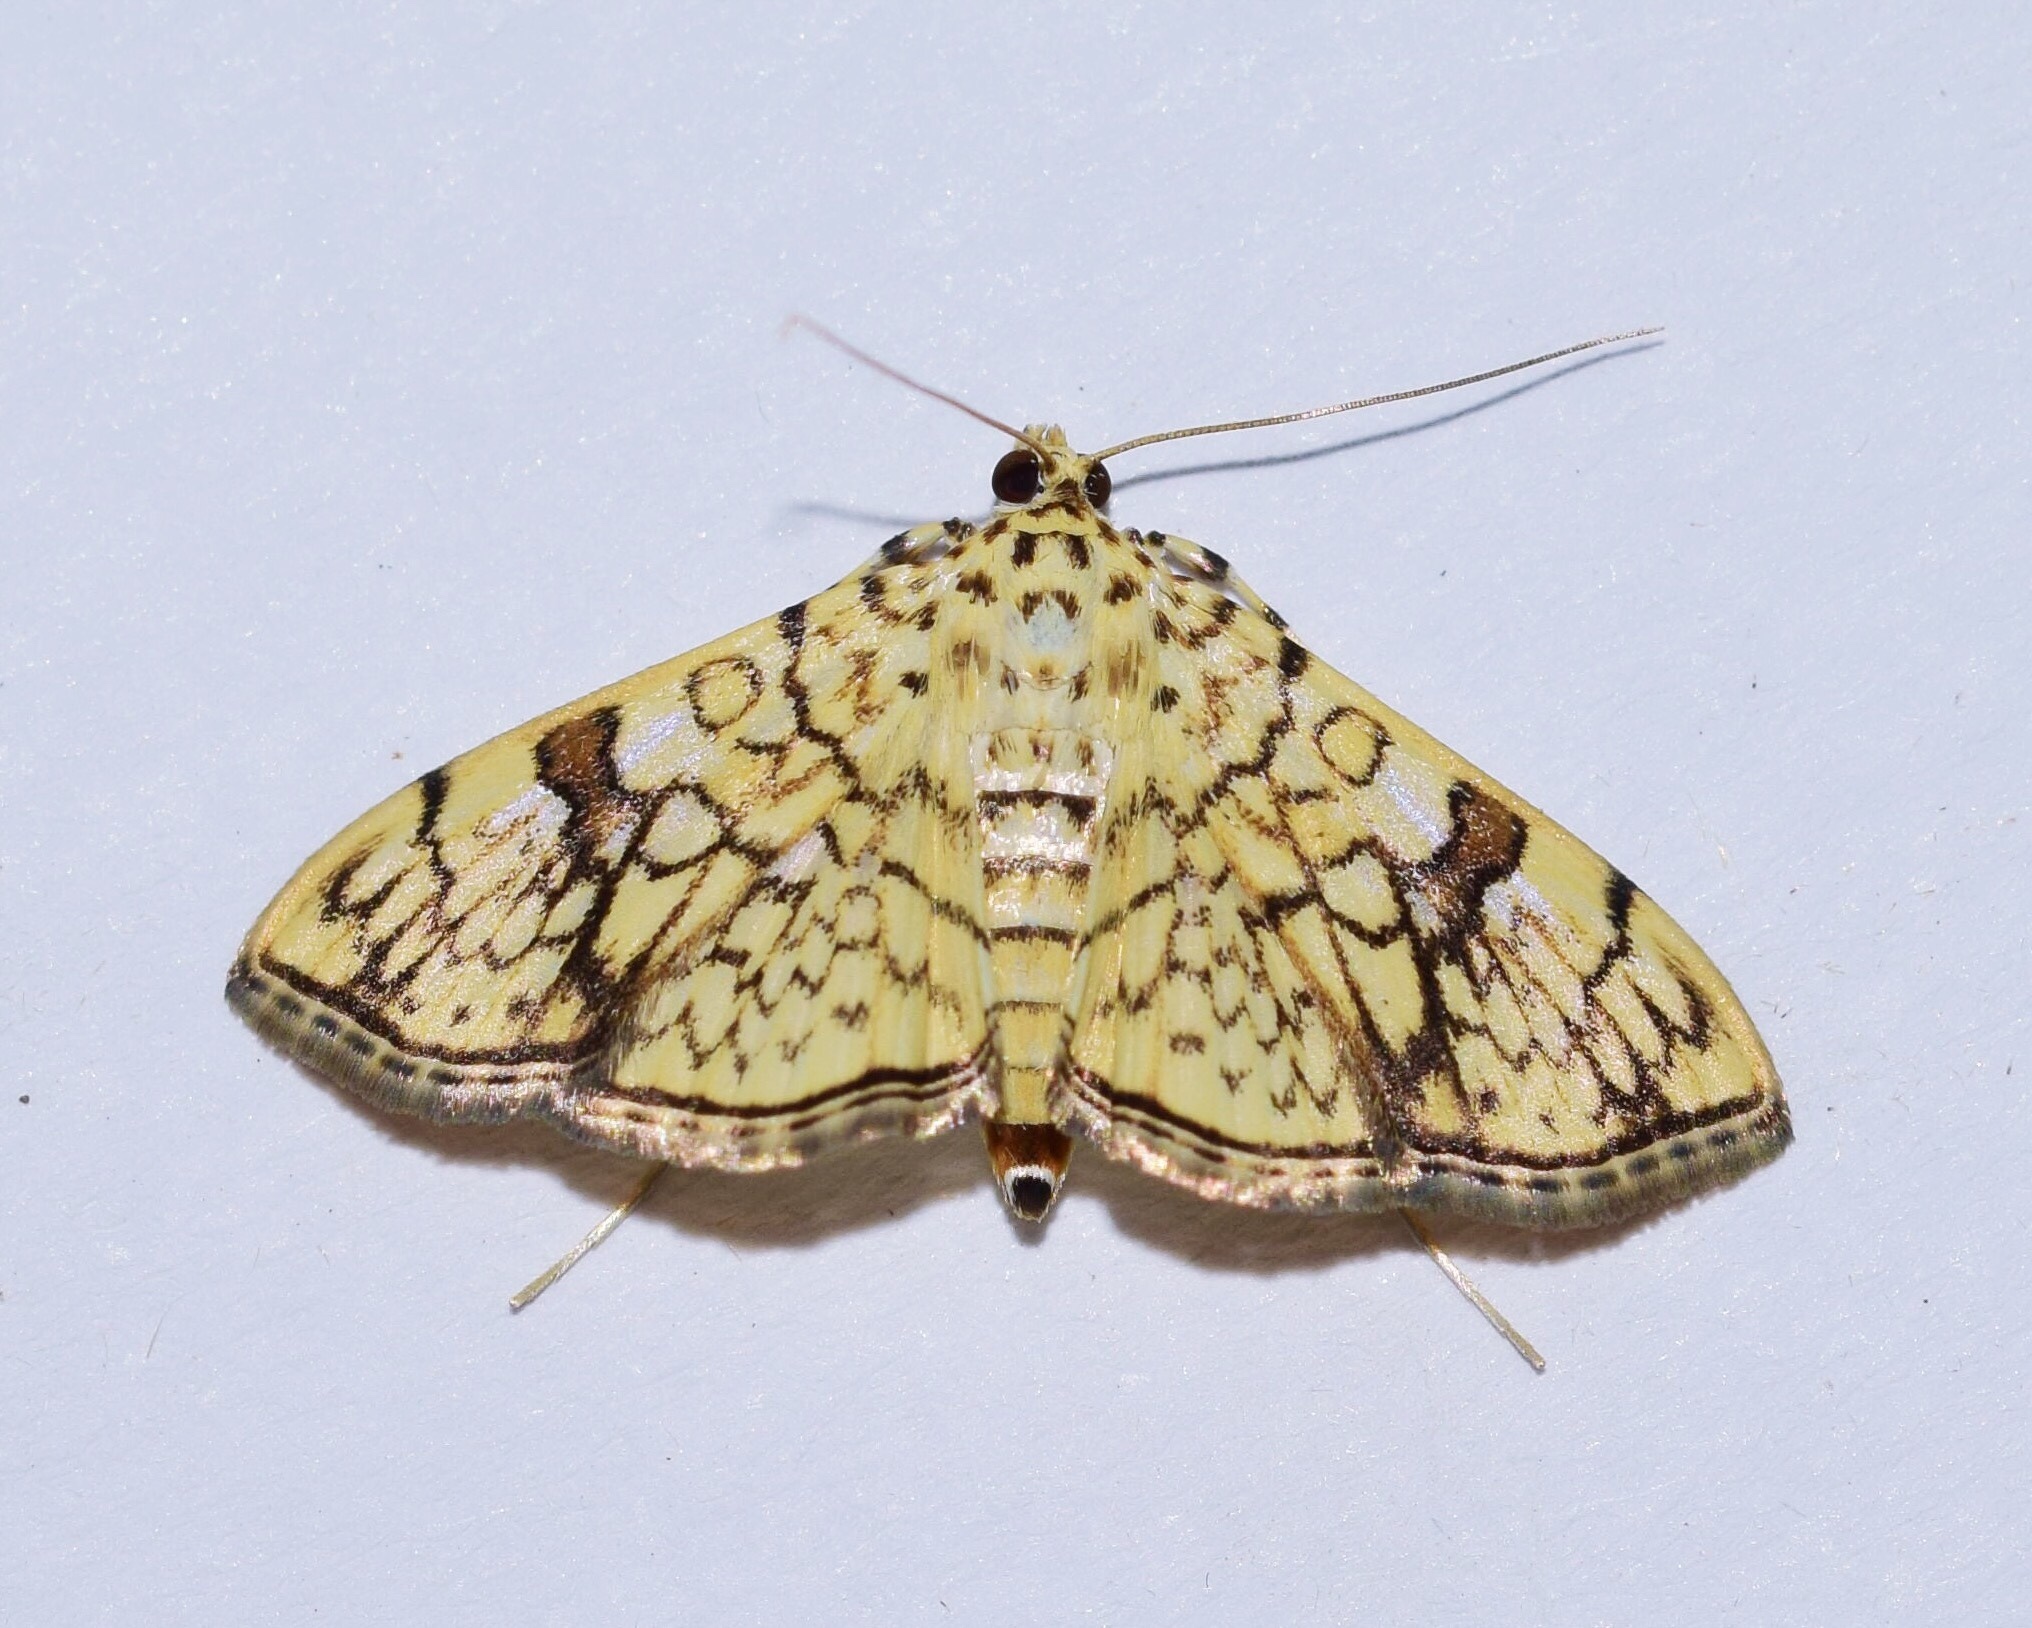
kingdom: Animalia
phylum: Arthropoda
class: Insecta
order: Lepidoptera
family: Crambidae
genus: Syllepte
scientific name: Syllepte polycymalis
